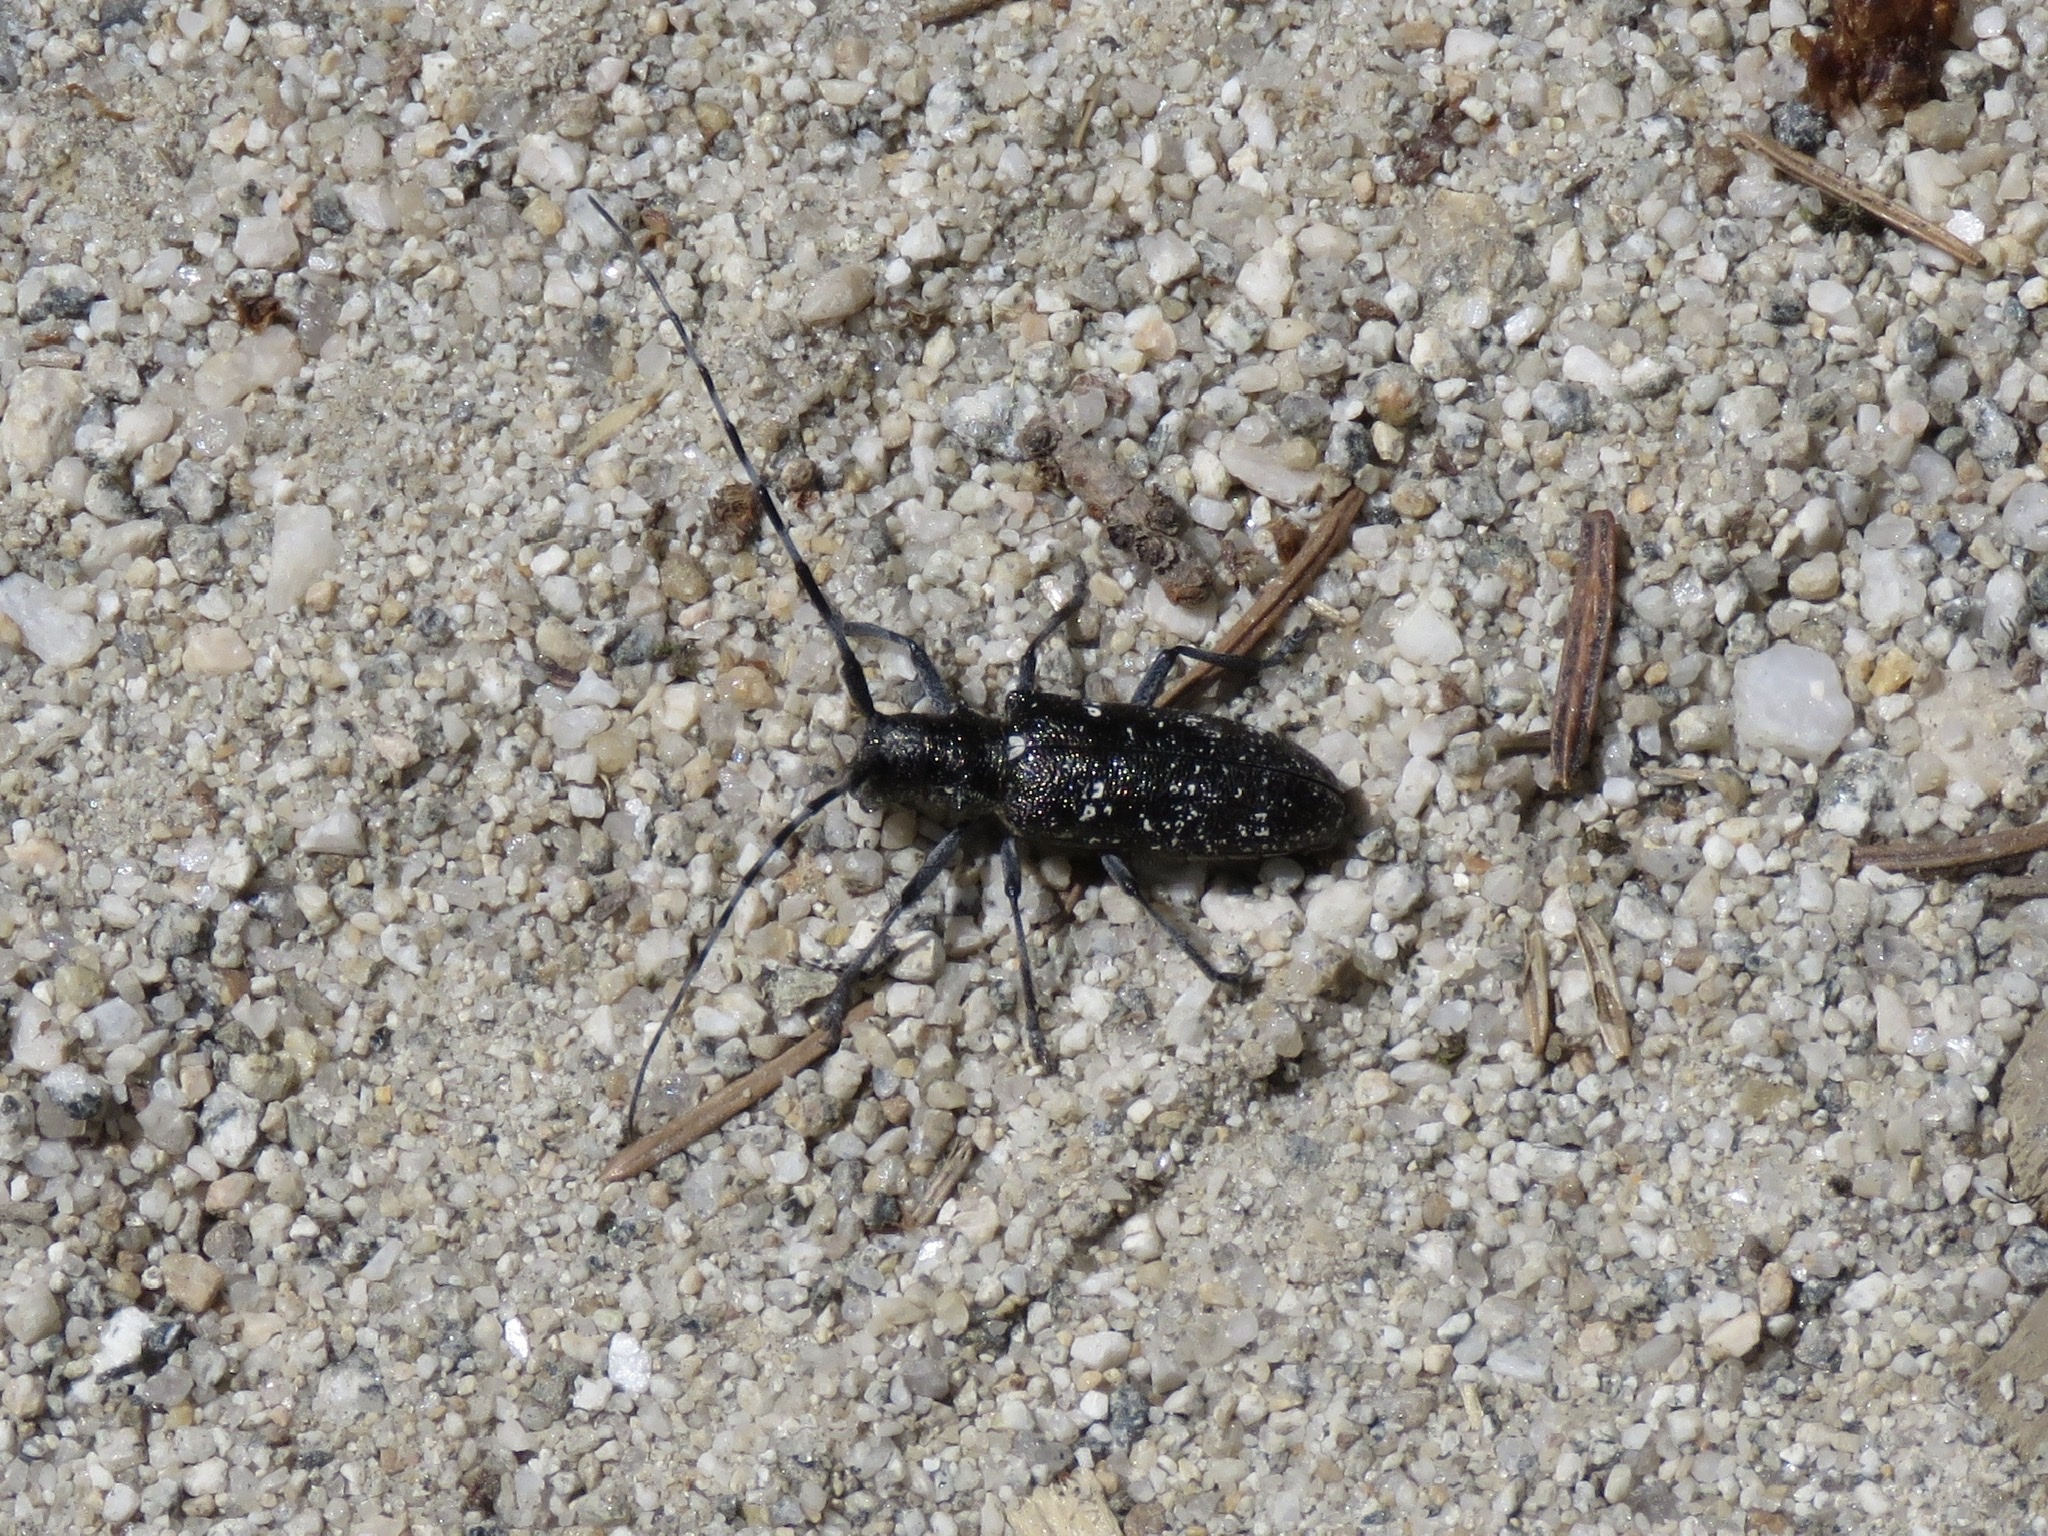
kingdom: Animalia
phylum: Arthropoda
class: Insecta
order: Coleoptera
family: Cerambycidae
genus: Monochamus
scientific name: Monochamus scutellatus
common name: White-spotted sawyer beetle
